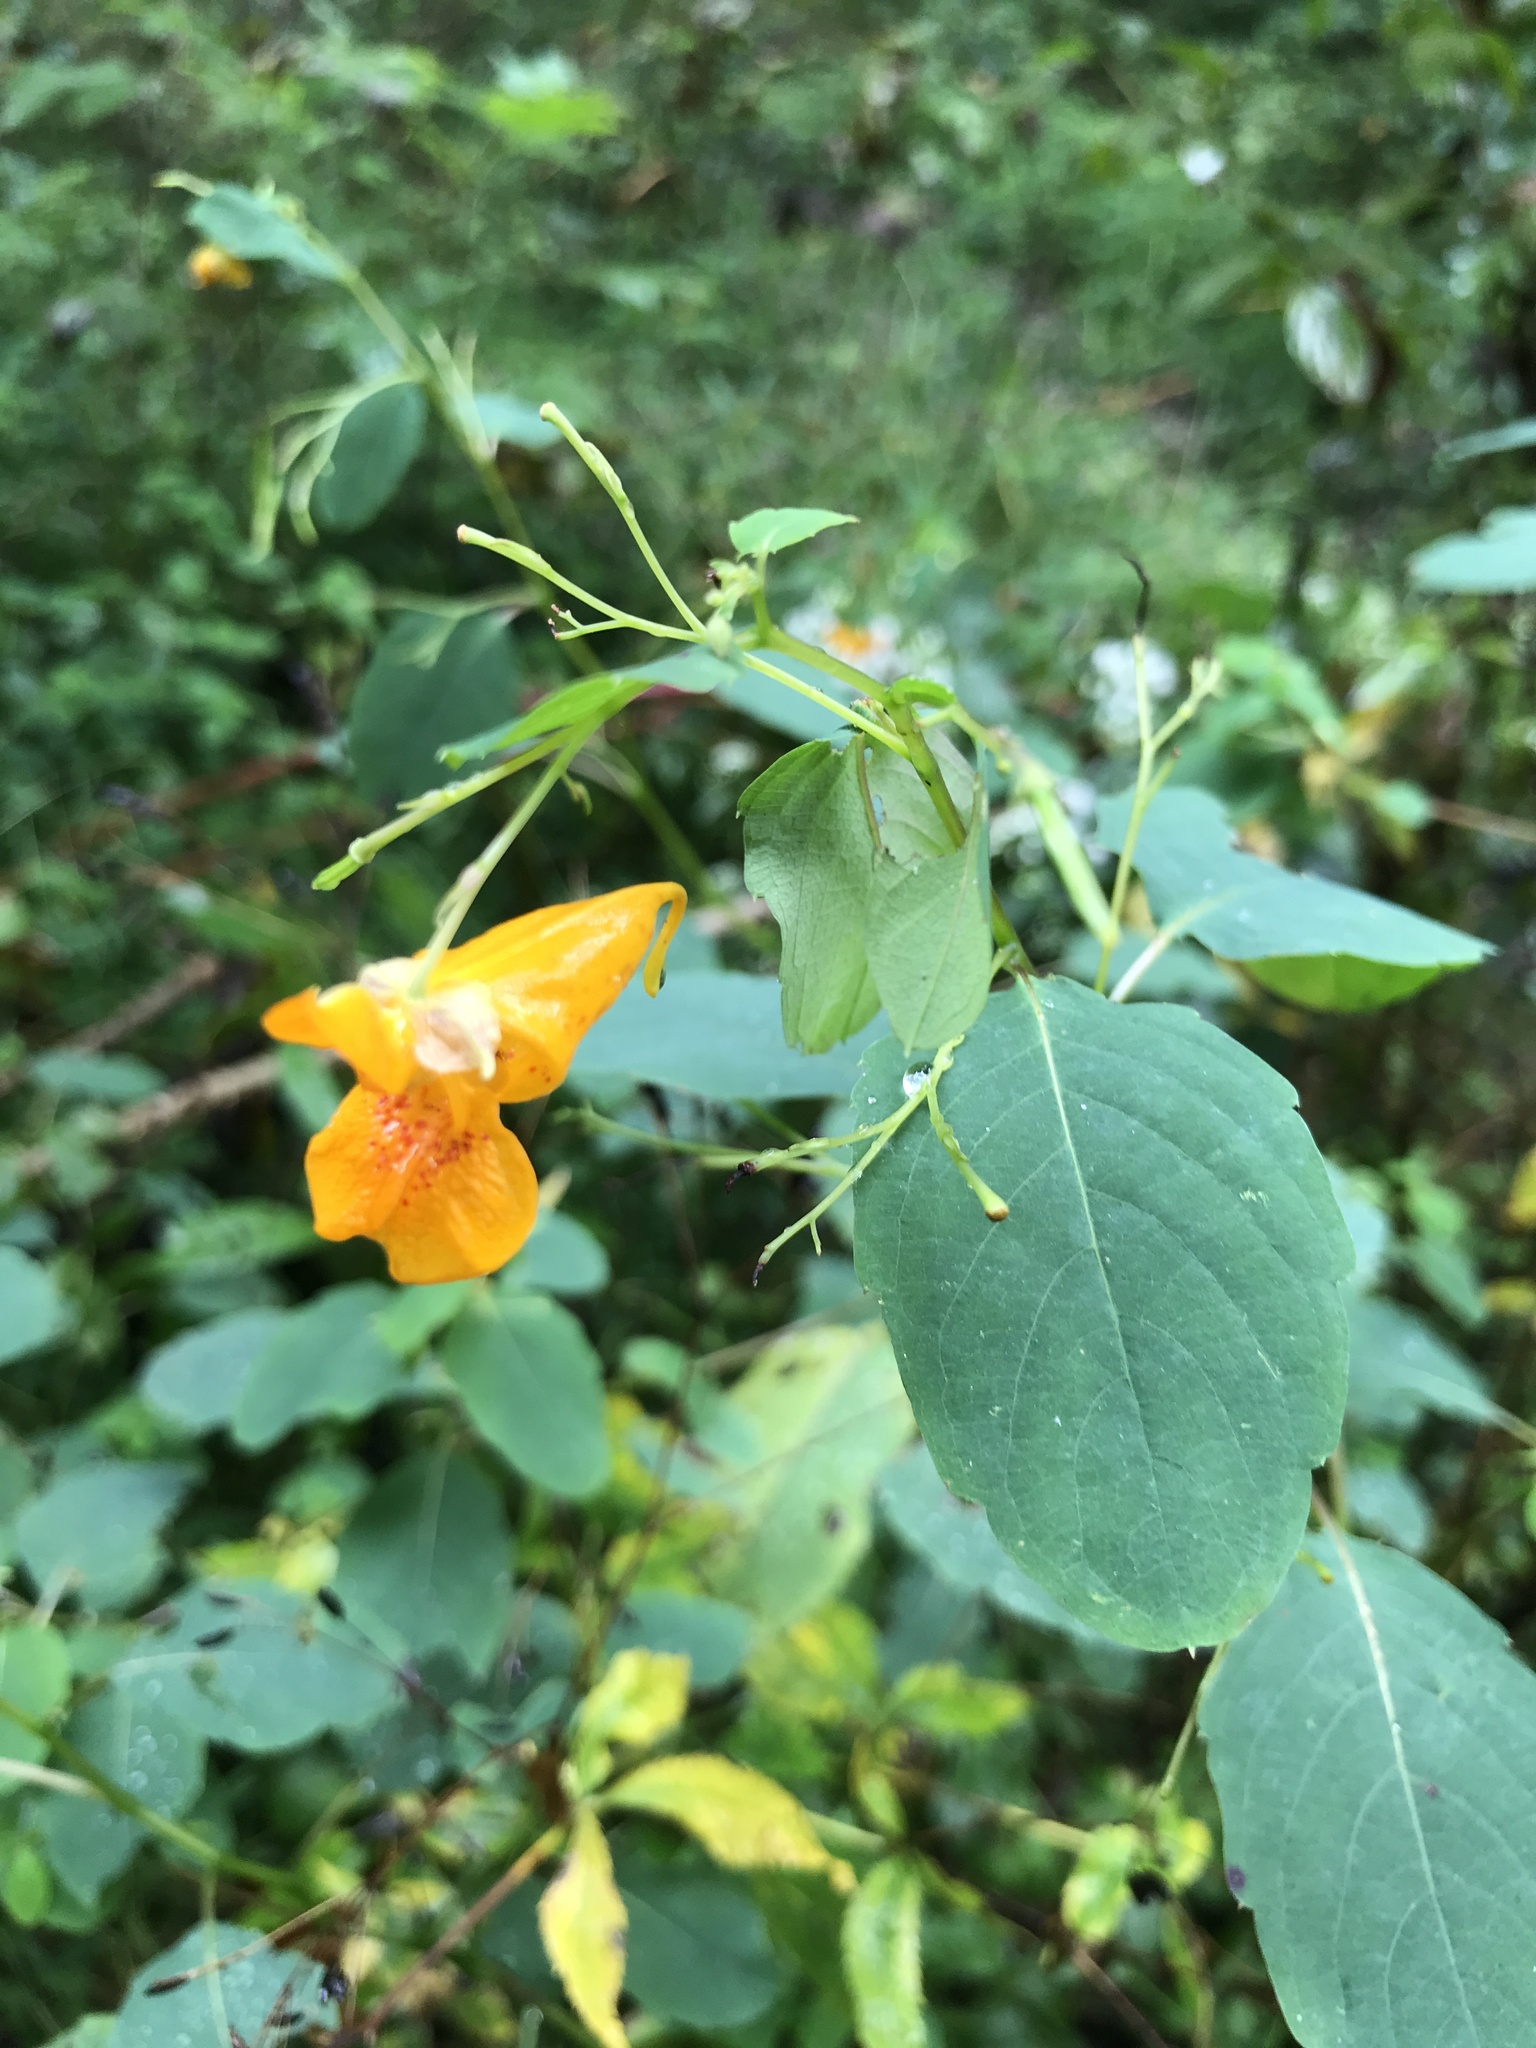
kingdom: Plantae
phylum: Tracheophyta
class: Magnoliopsida
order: Ericales
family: Balsaminaceae
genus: Impatiens
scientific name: Impatiens capensis
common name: Orange balsam
